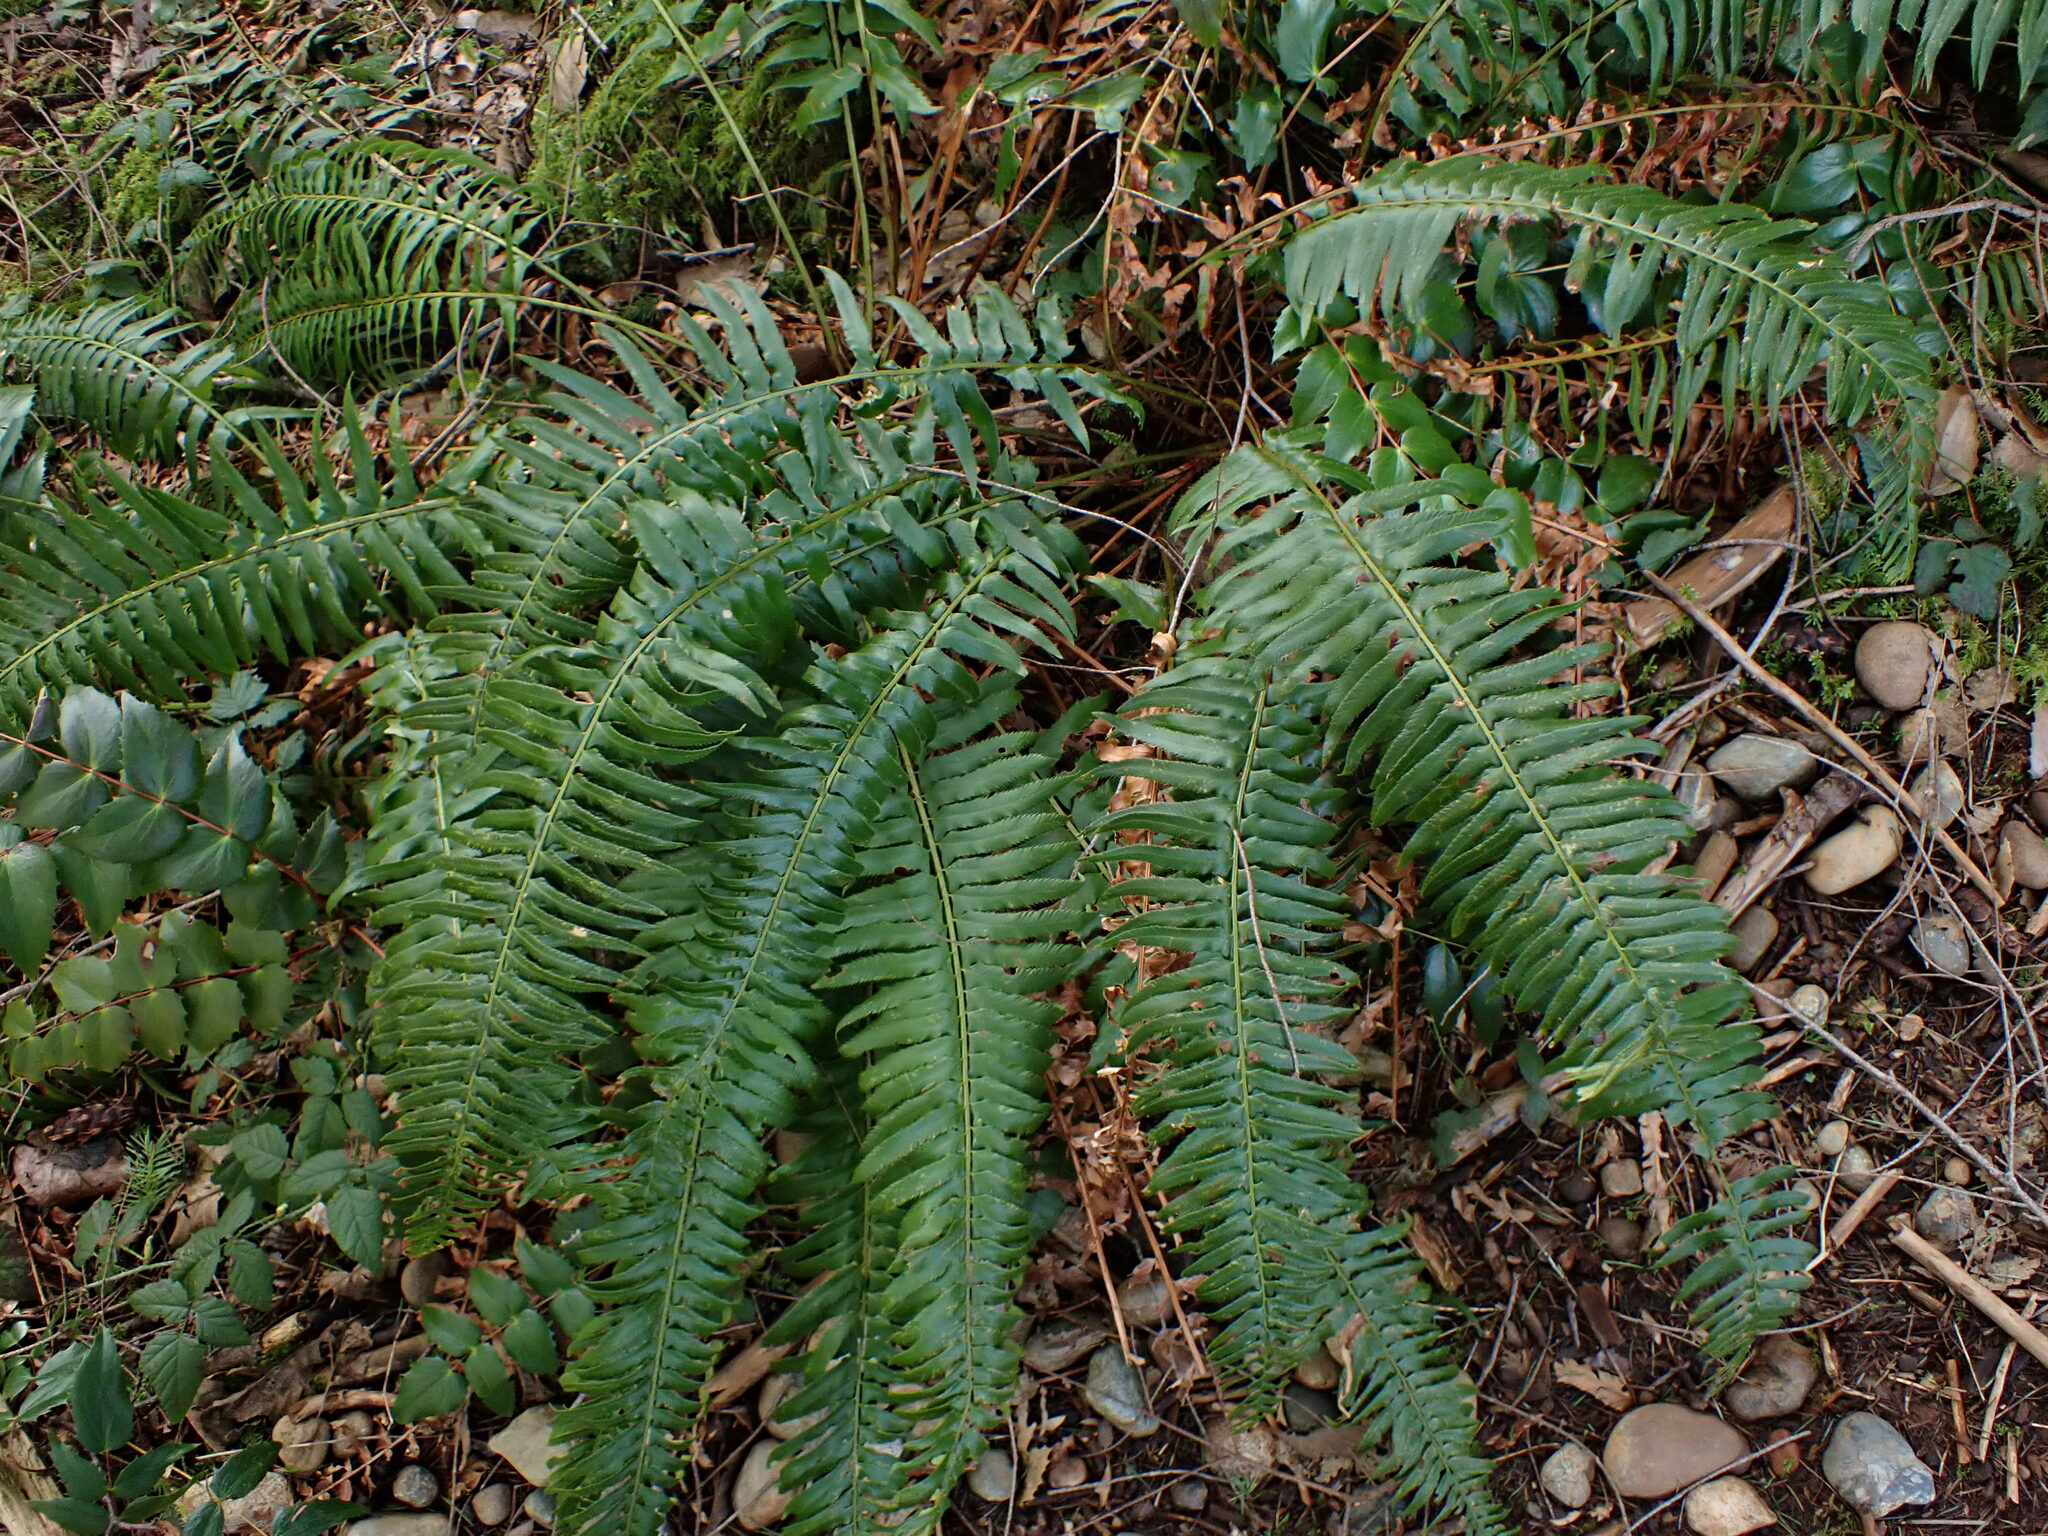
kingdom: Plantae
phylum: Tracheophyta
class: Polypodiopsida
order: Polypodiales
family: Dryopteridaceae
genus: Polystichum
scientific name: Polystichum munitum
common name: Western sword-fern
